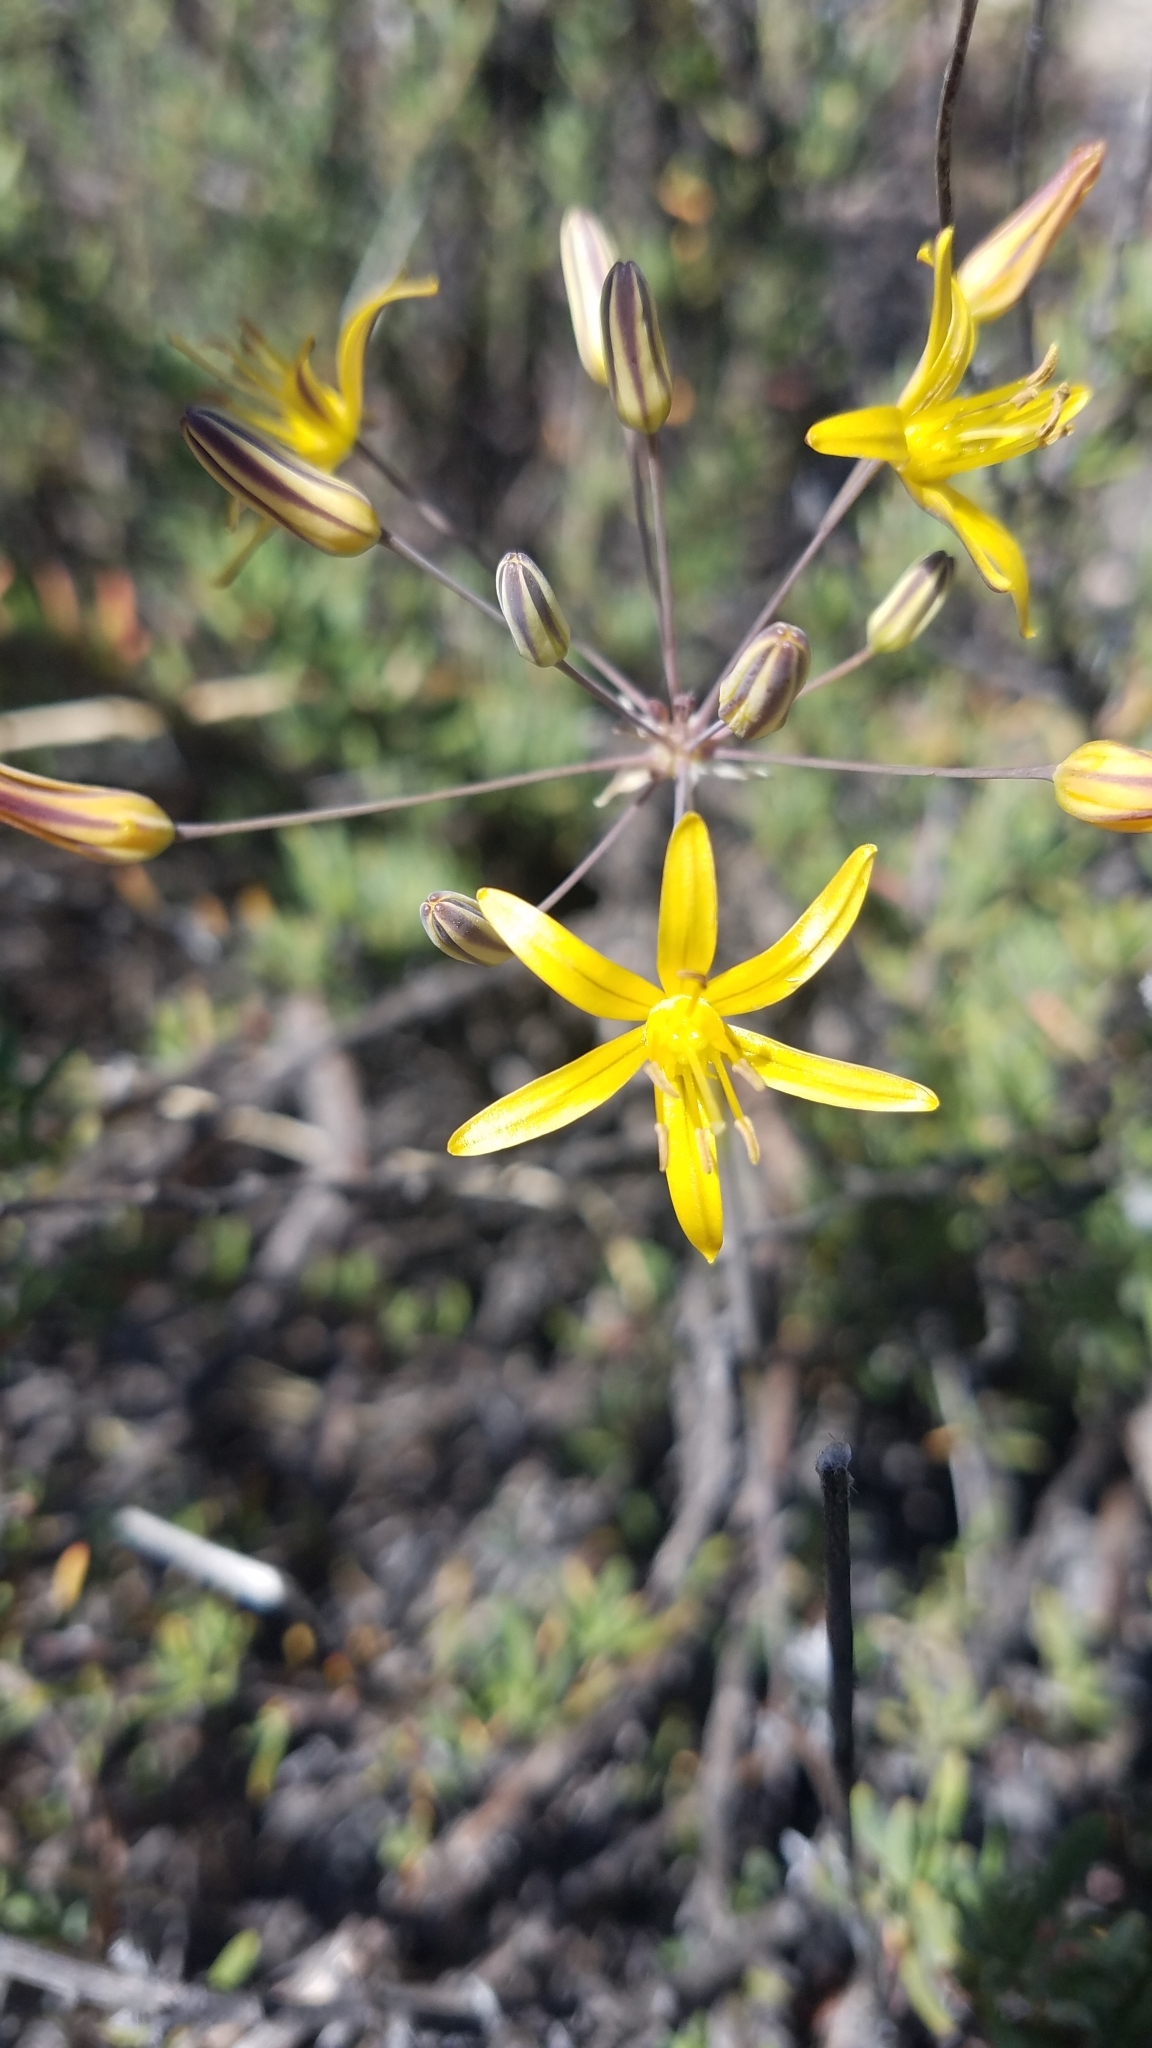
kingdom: Plantae
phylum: Tracheophyta
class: Liliopsida
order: Asparagales
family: Asparagaceae
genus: Bloomeria
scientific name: Bloomeria crocea
